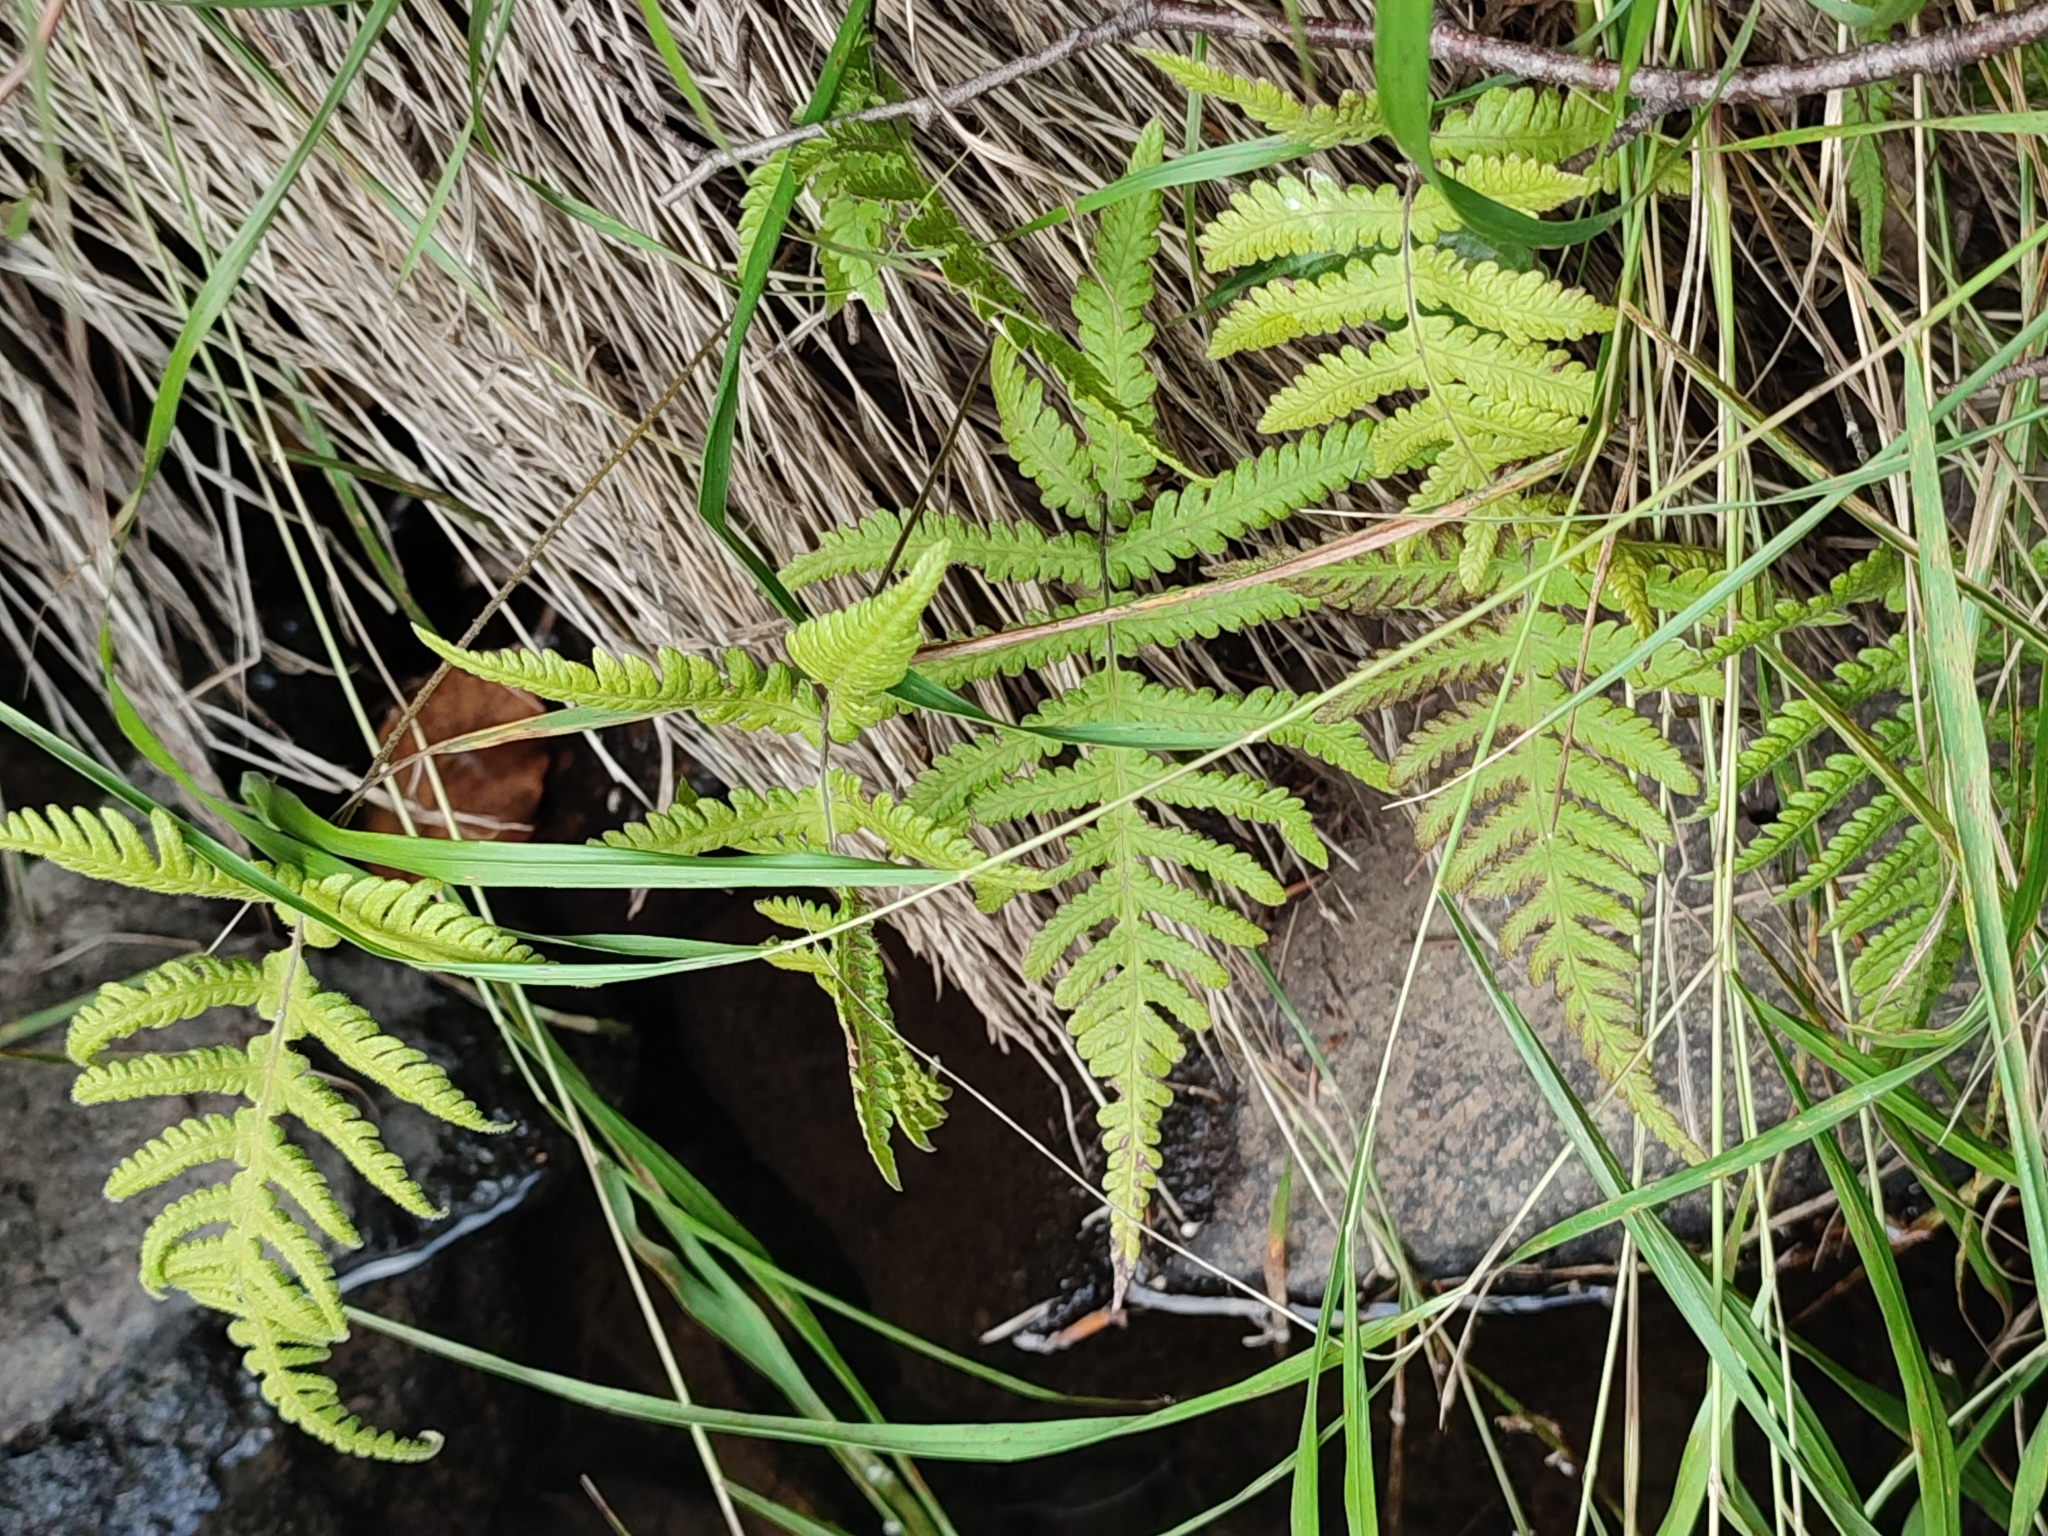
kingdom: Plantae
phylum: Tracheophyta
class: Polypodiopsida
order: Polypodiales
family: Thelypteridaceae
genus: Phegopteris
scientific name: Phegopteris connectilis
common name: Beech fern
